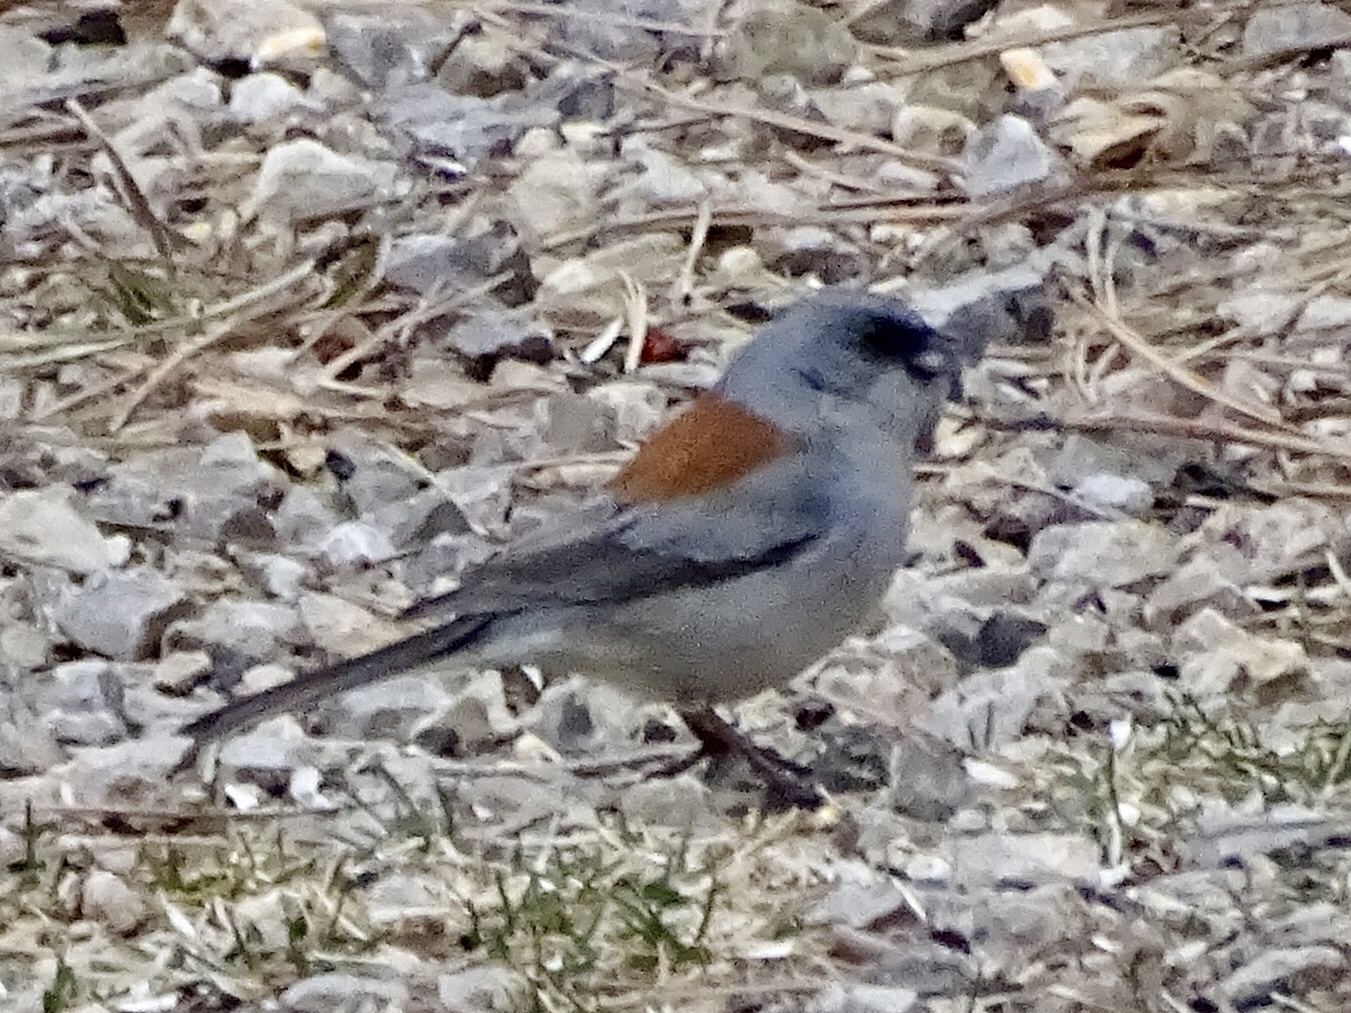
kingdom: Animalia
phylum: Chordata
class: Aves
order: Passeriformes
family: Passerellidae
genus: Junco
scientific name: Junco hyemalis
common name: Dark-eyed junco
